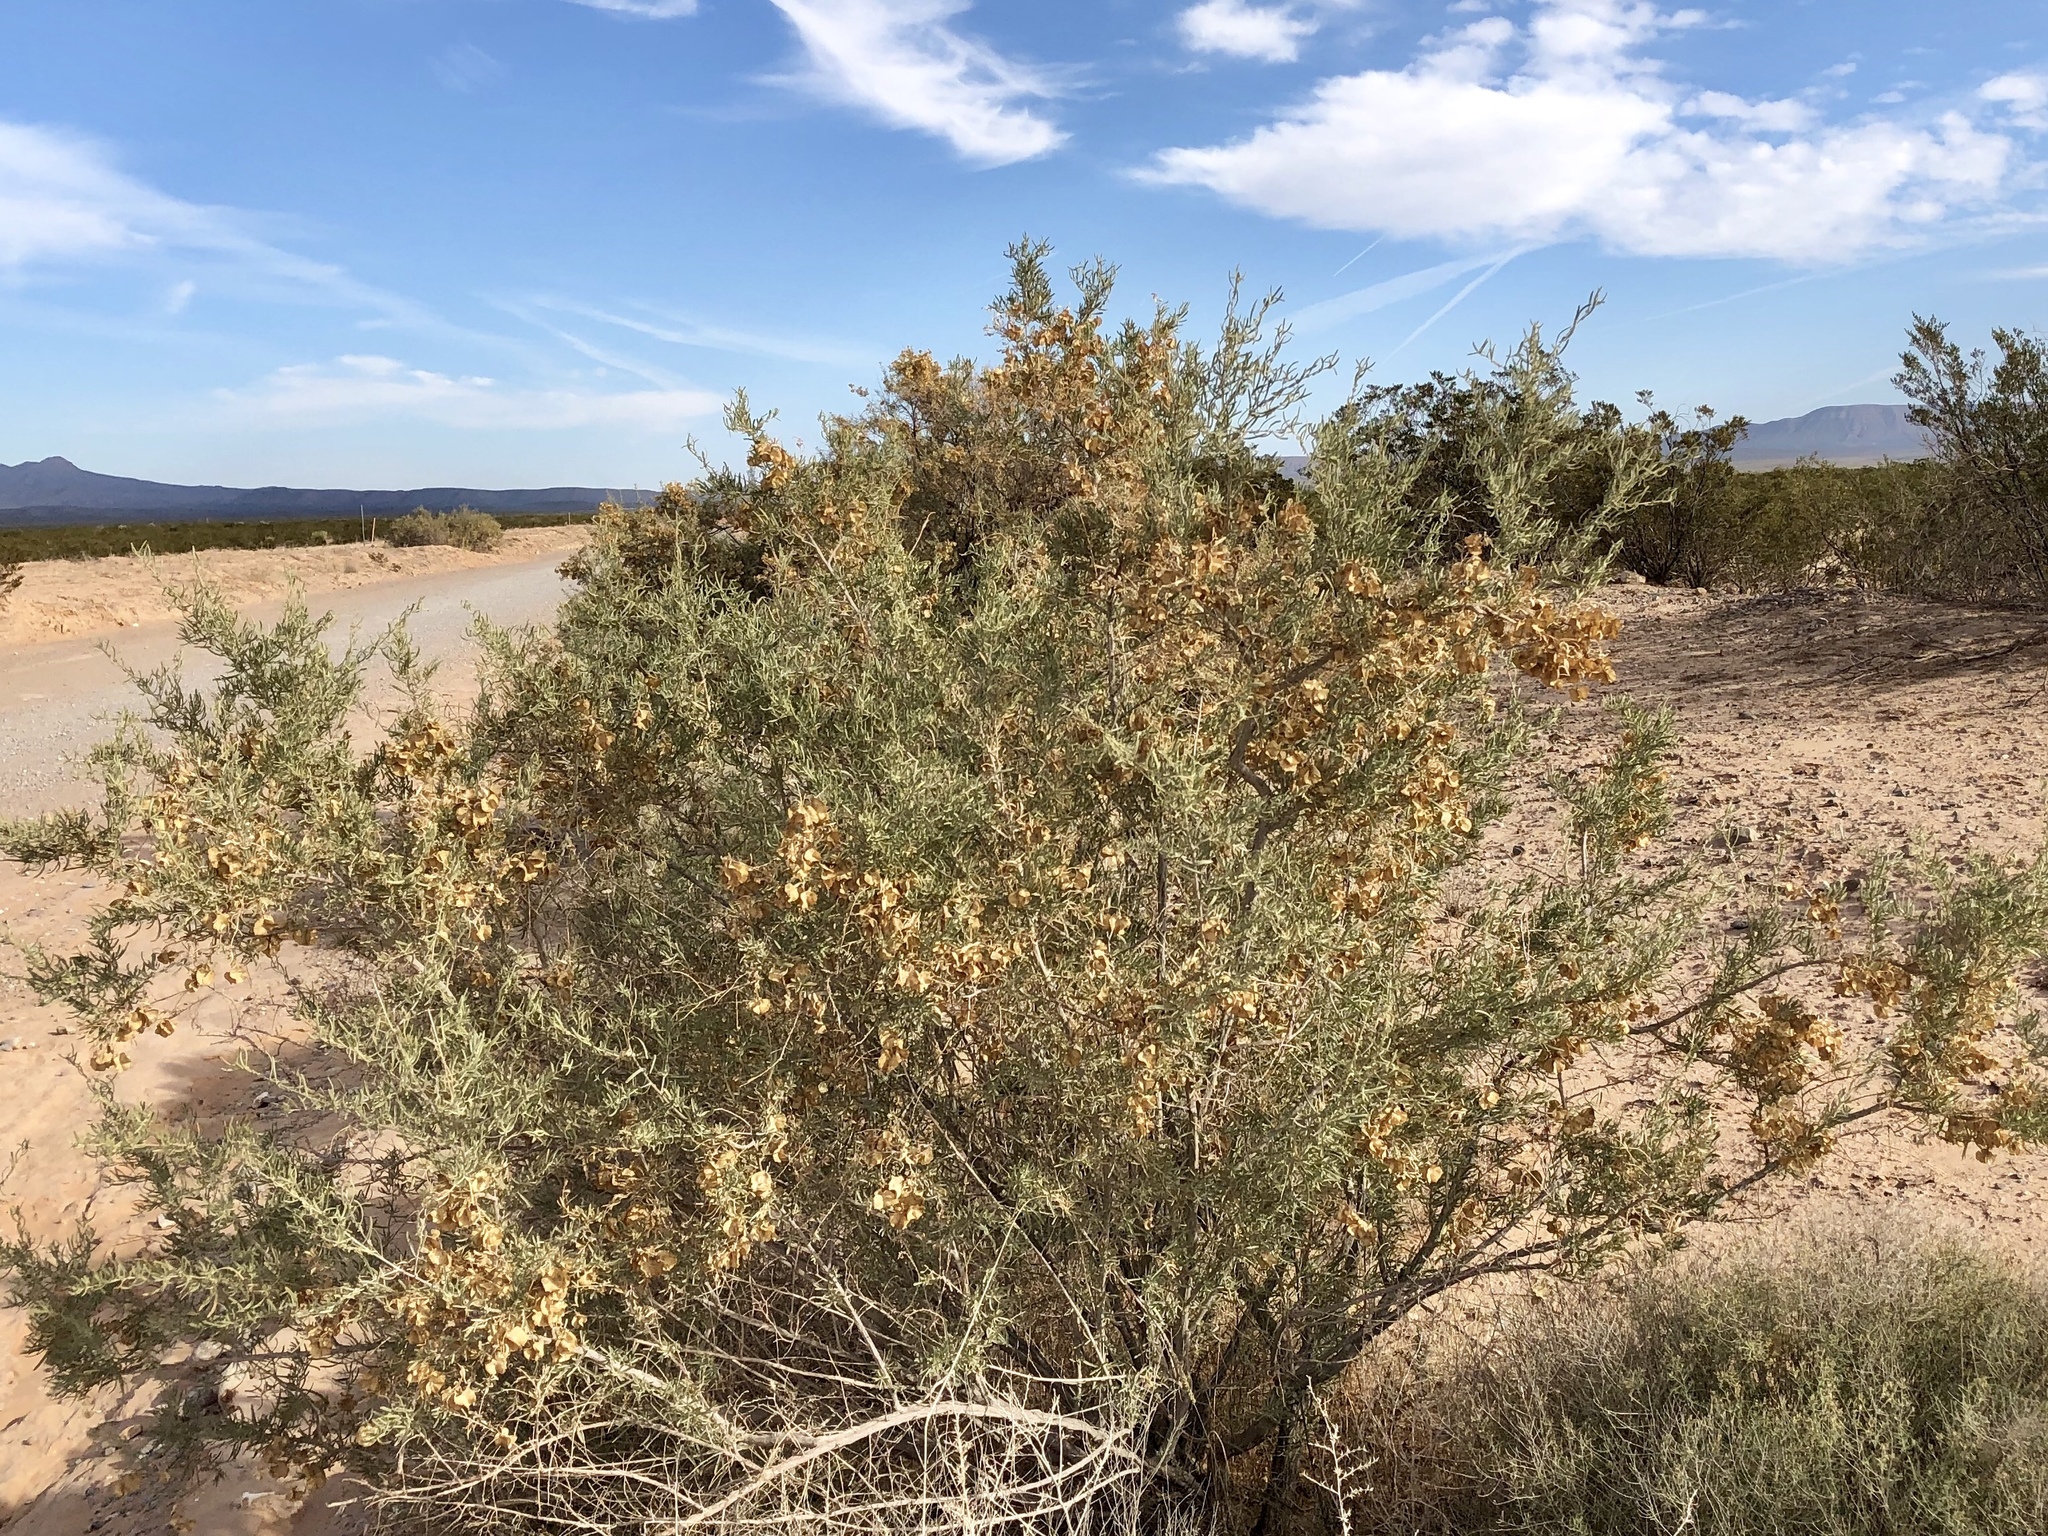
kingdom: Plantae
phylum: Tracheophyta
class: Magnoliopsida
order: Caryophyllales
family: Amaranthaceae
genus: Atriplex
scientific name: Atriplex canescens
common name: Four-wing saltbush
